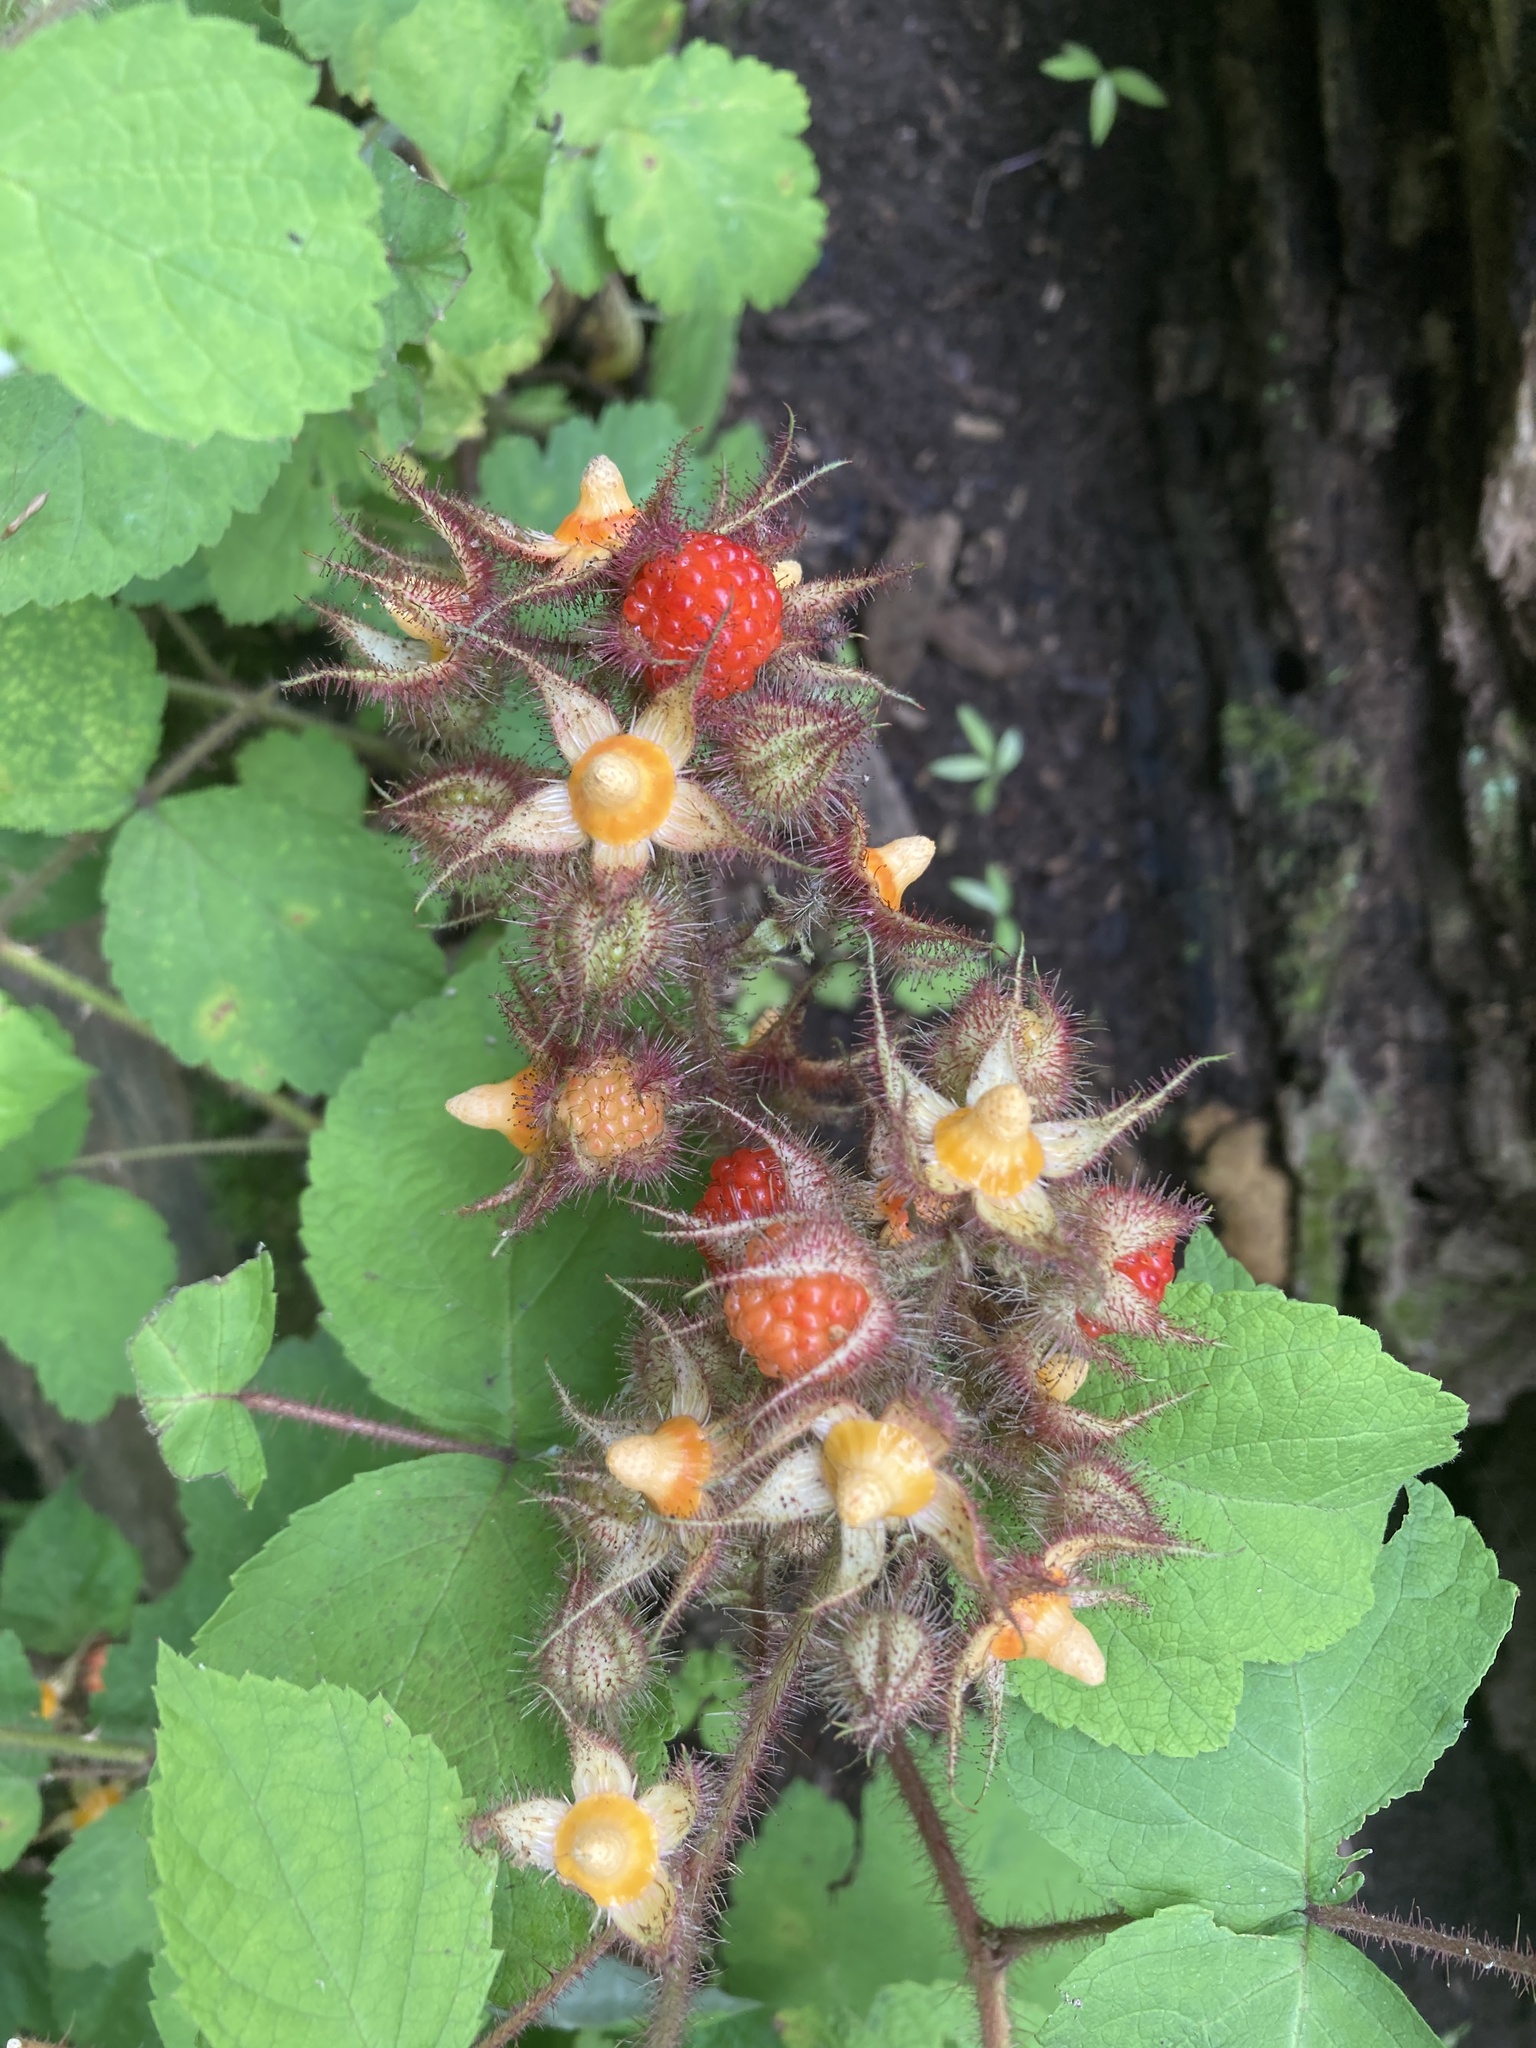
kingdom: Plantae
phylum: Tracheophyta
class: Magnoliopsida
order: Rosales
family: Rosaceae
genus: Rubus
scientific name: Rubus phoenicolasius
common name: Japanese wineberry
